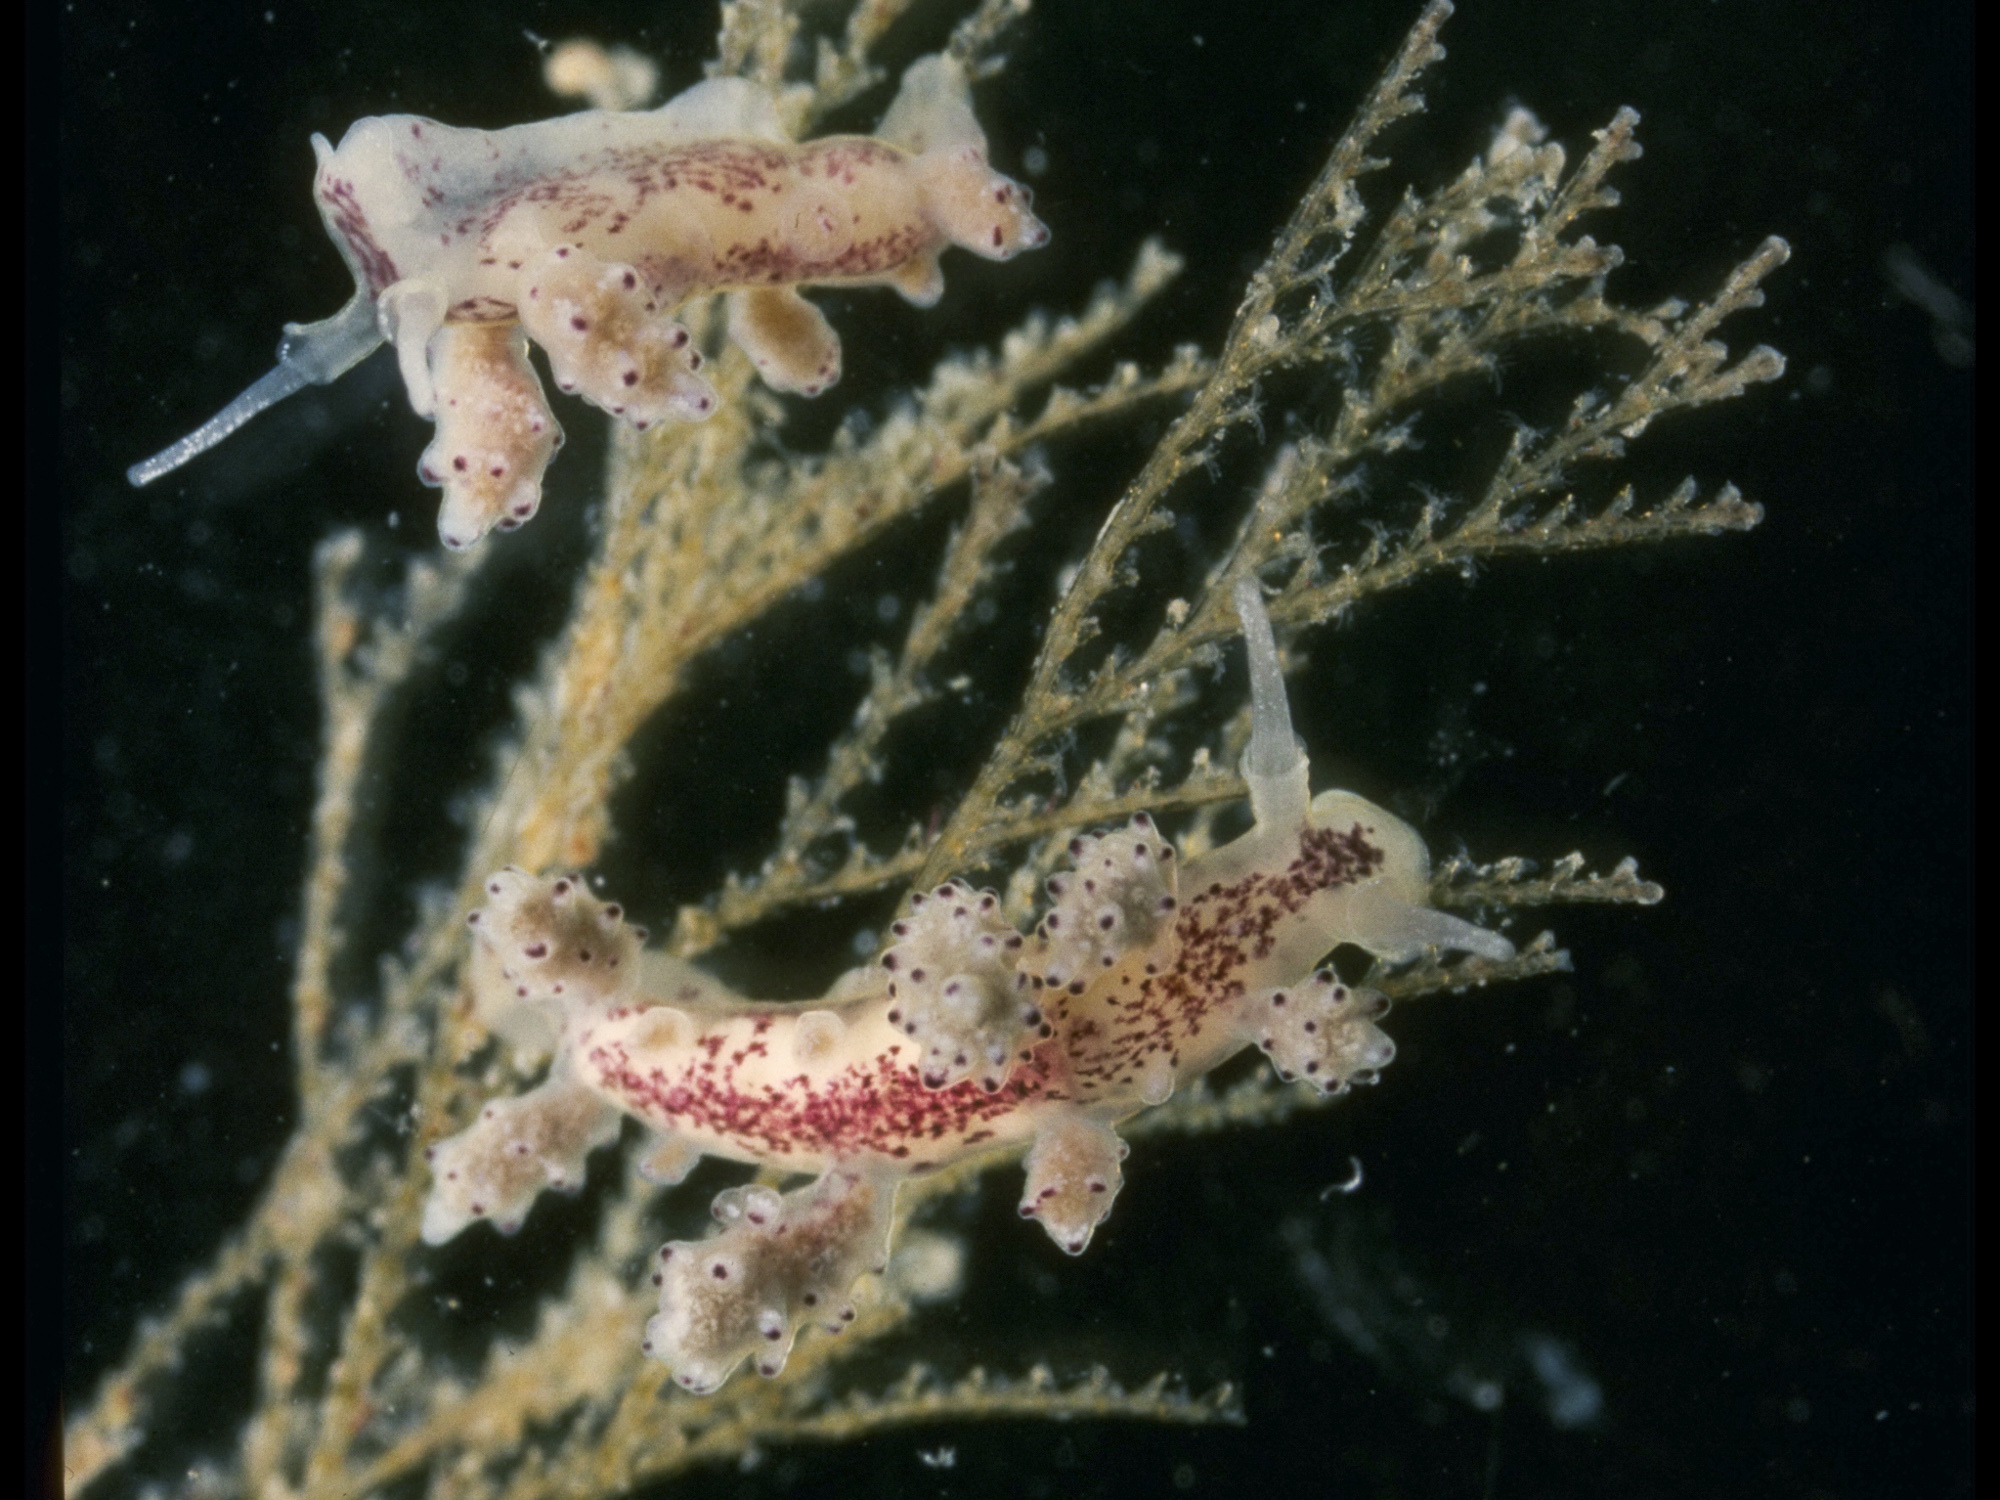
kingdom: Animalia
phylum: Mollusca
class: Gastropoda
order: Nudibranchia
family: Dotidae
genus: Doto
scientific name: Doto eireana
